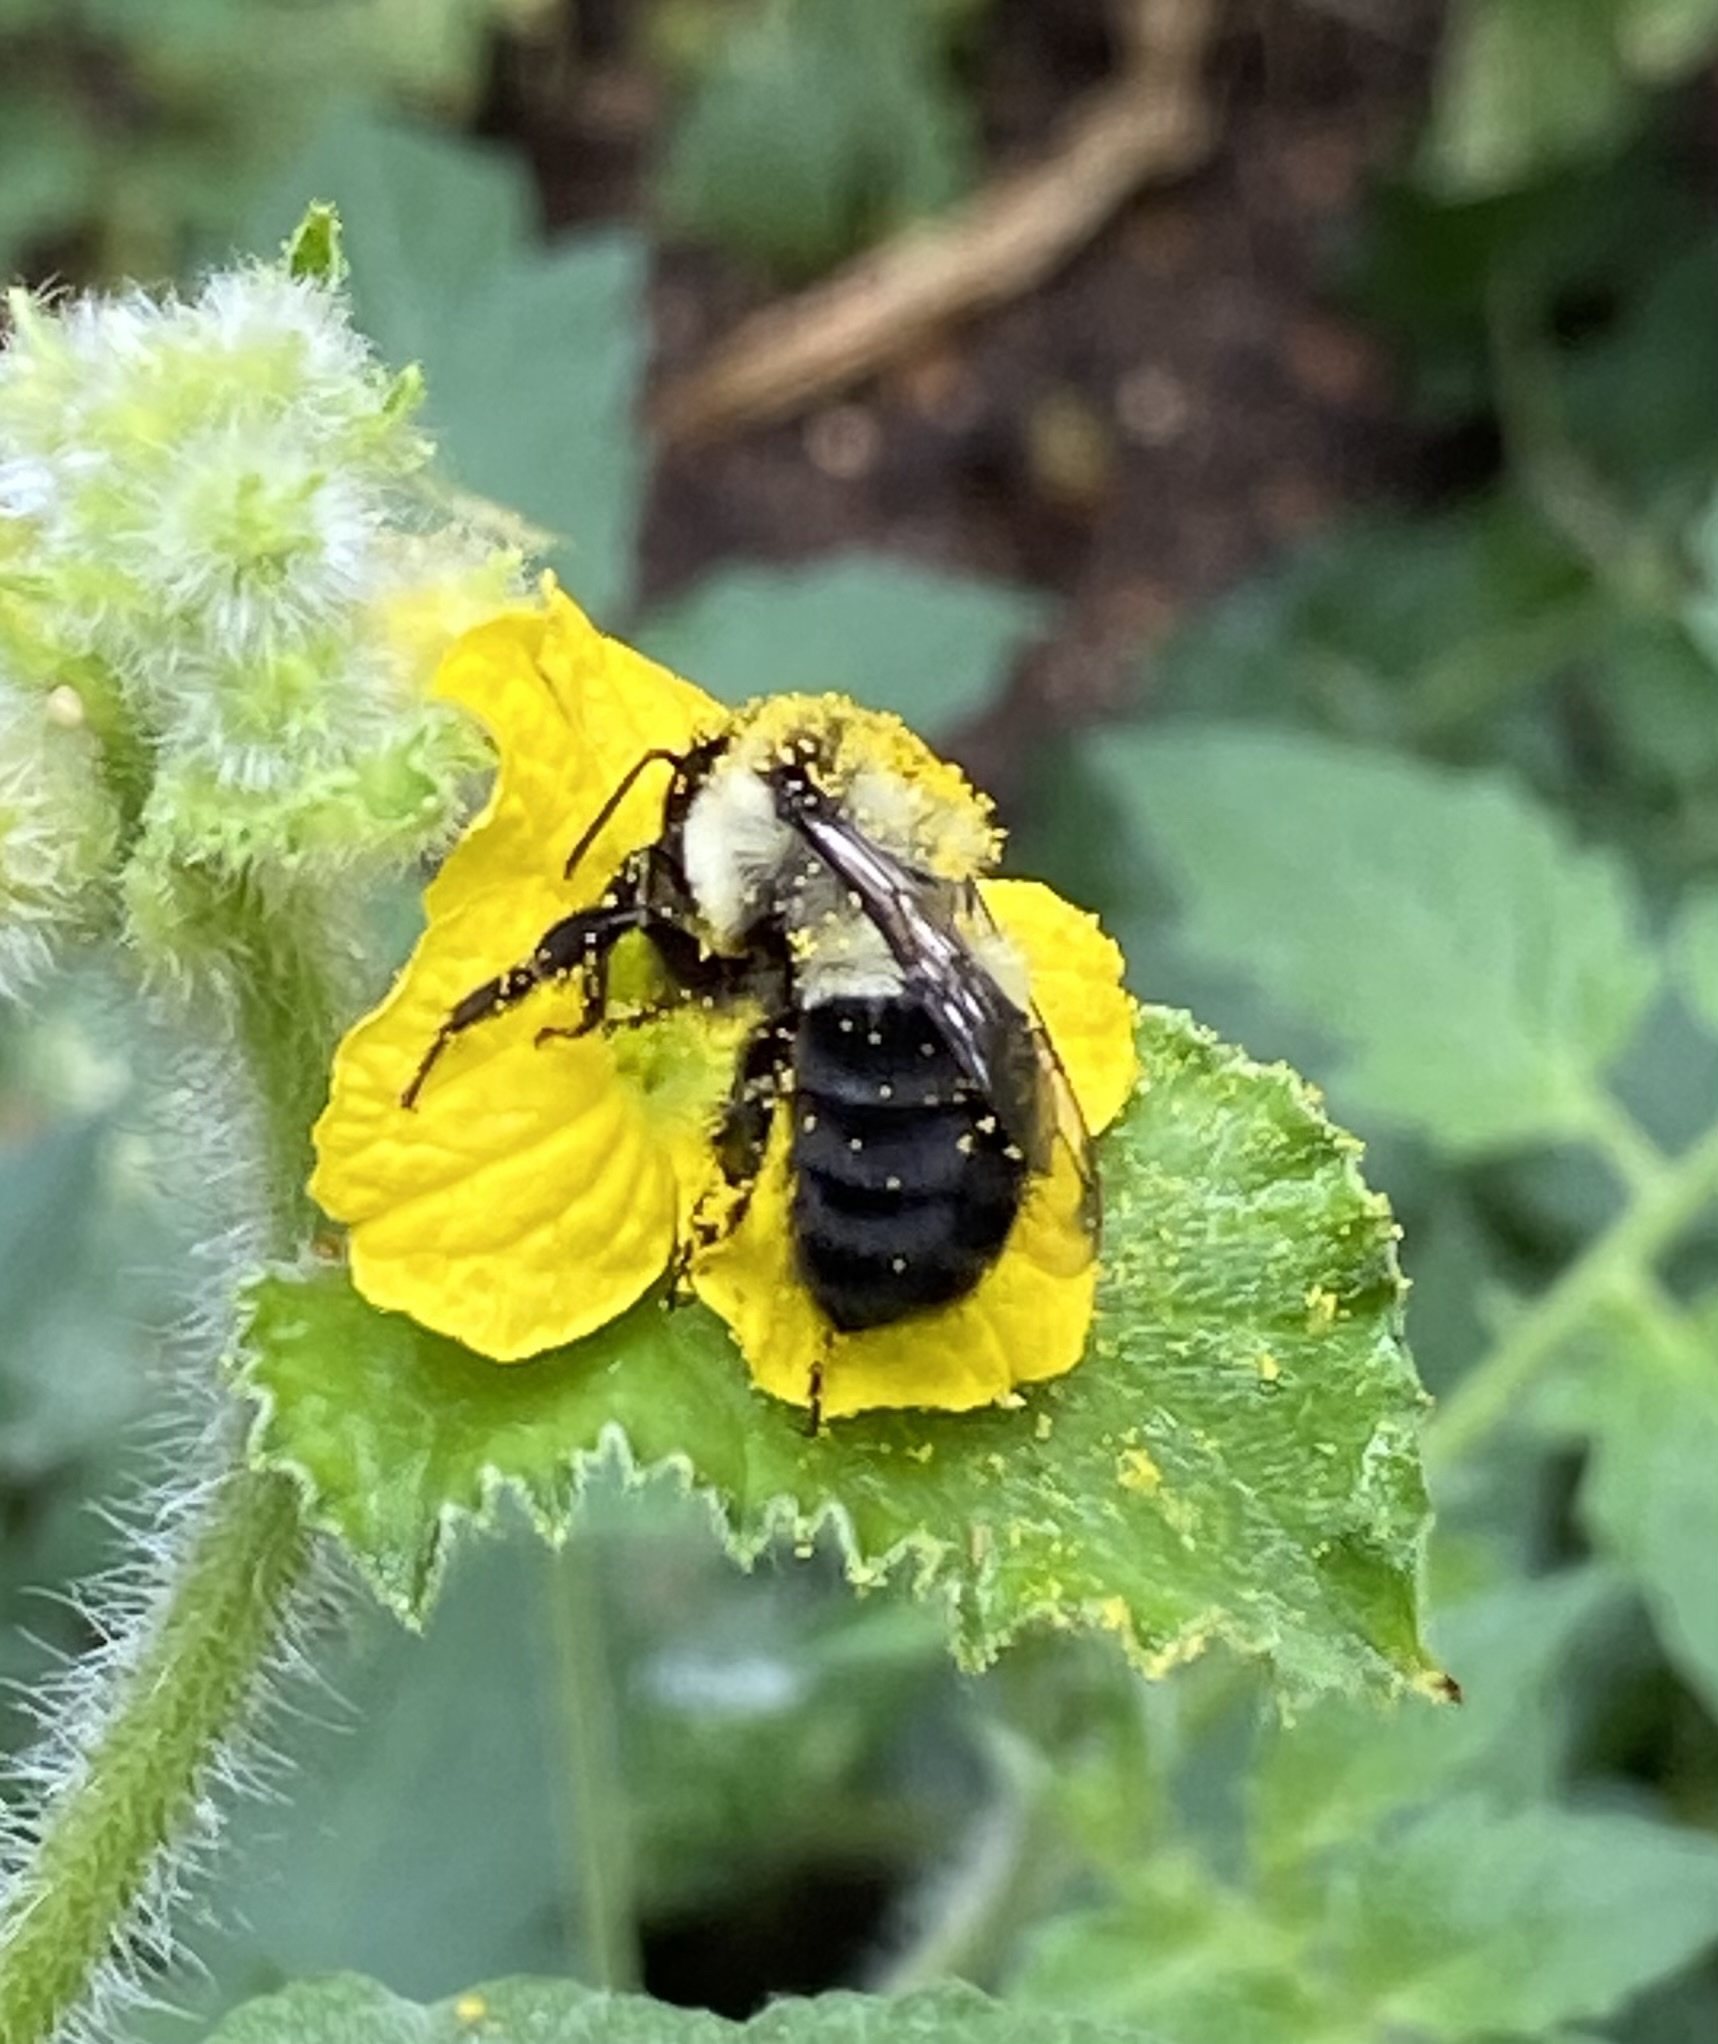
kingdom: Animalia
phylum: Arthropoda
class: Insecta
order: Hymenoptera
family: Apidae
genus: Bombus
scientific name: Bombus impatiens
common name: Common eastern bumble bee
